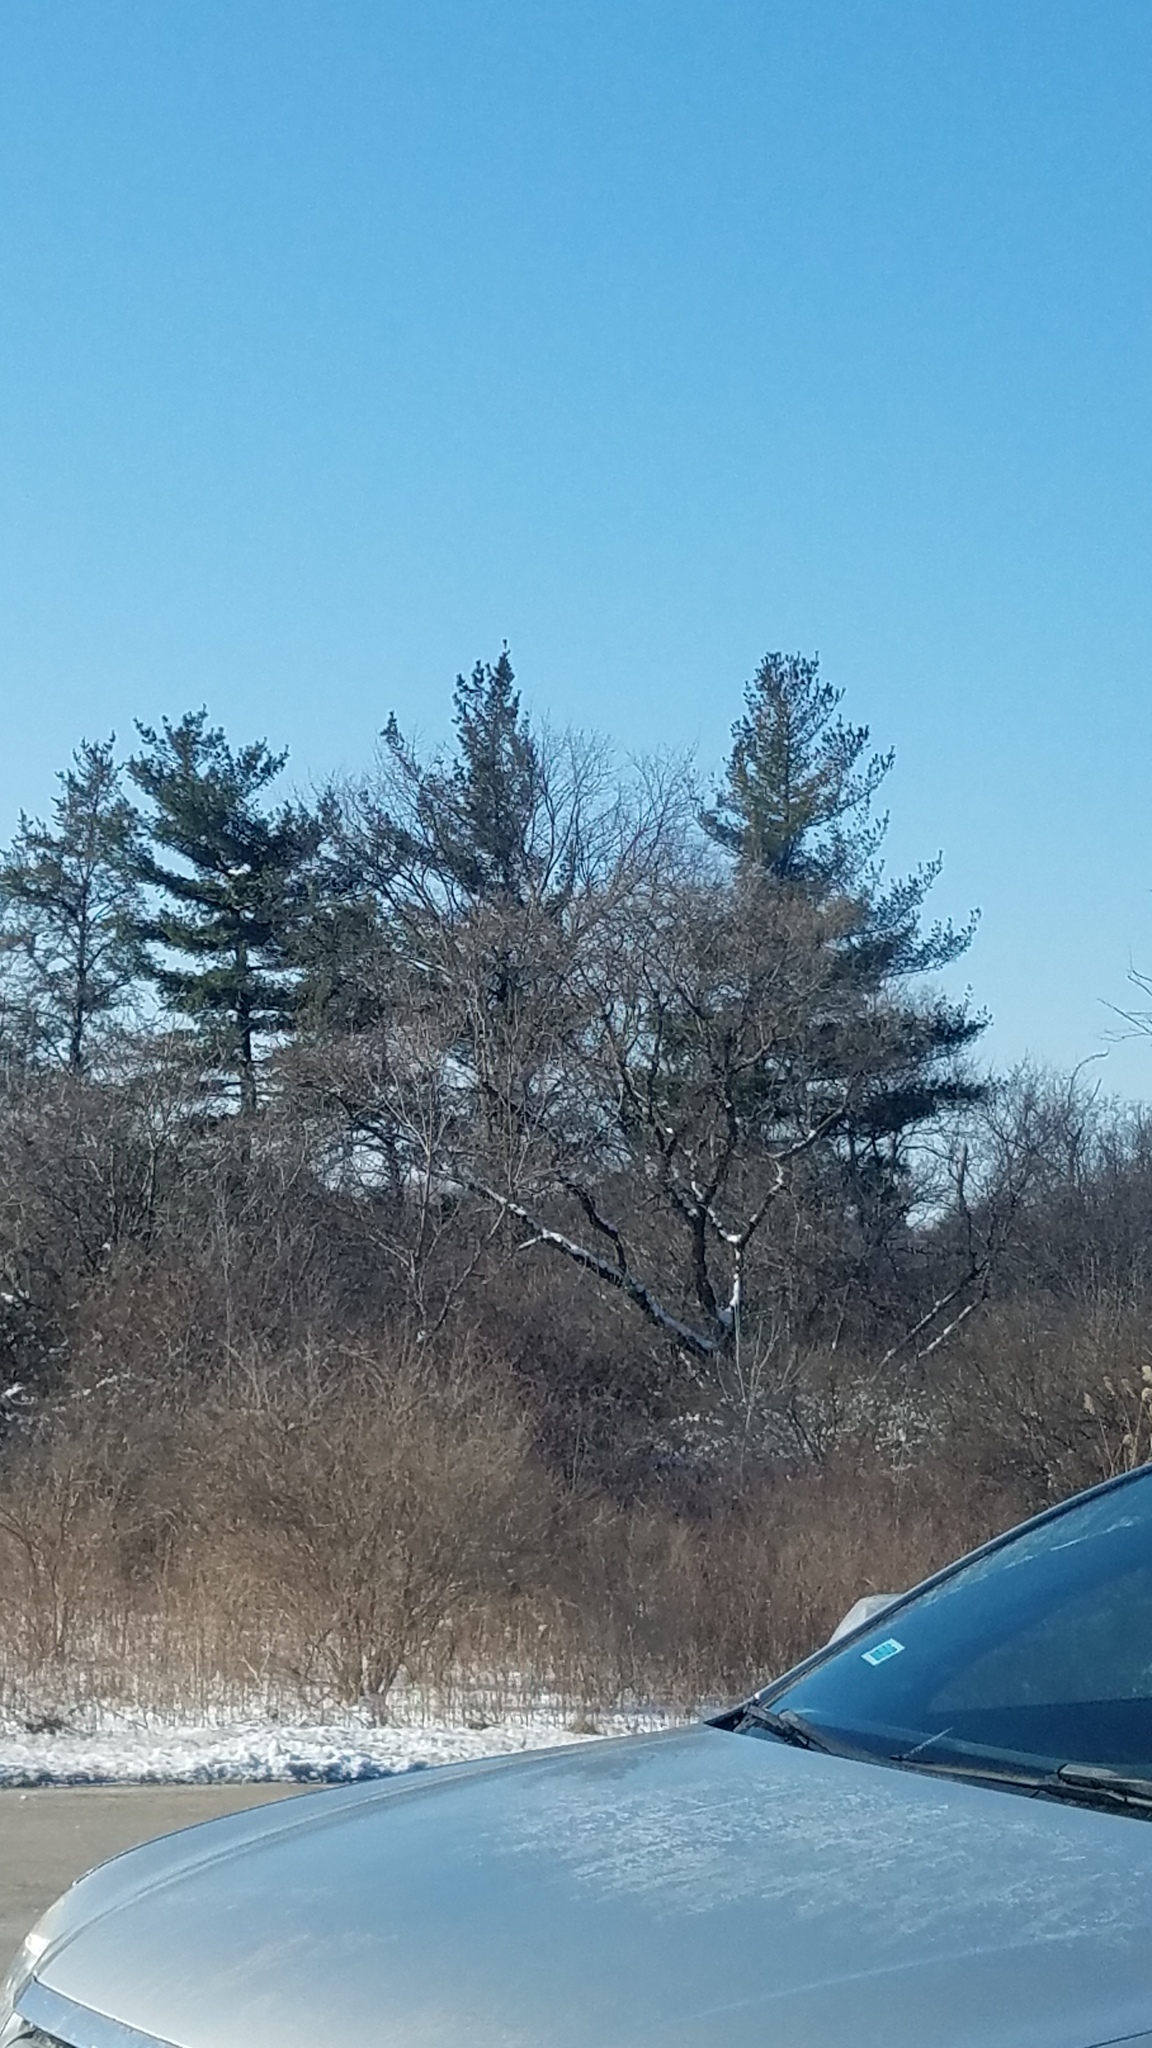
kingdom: Plantae
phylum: Tracheophyta
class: Pinopsida
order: Pinales
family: Pinaceae
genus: Pinus
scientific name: Pinus strobus
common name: Weymouth pine
